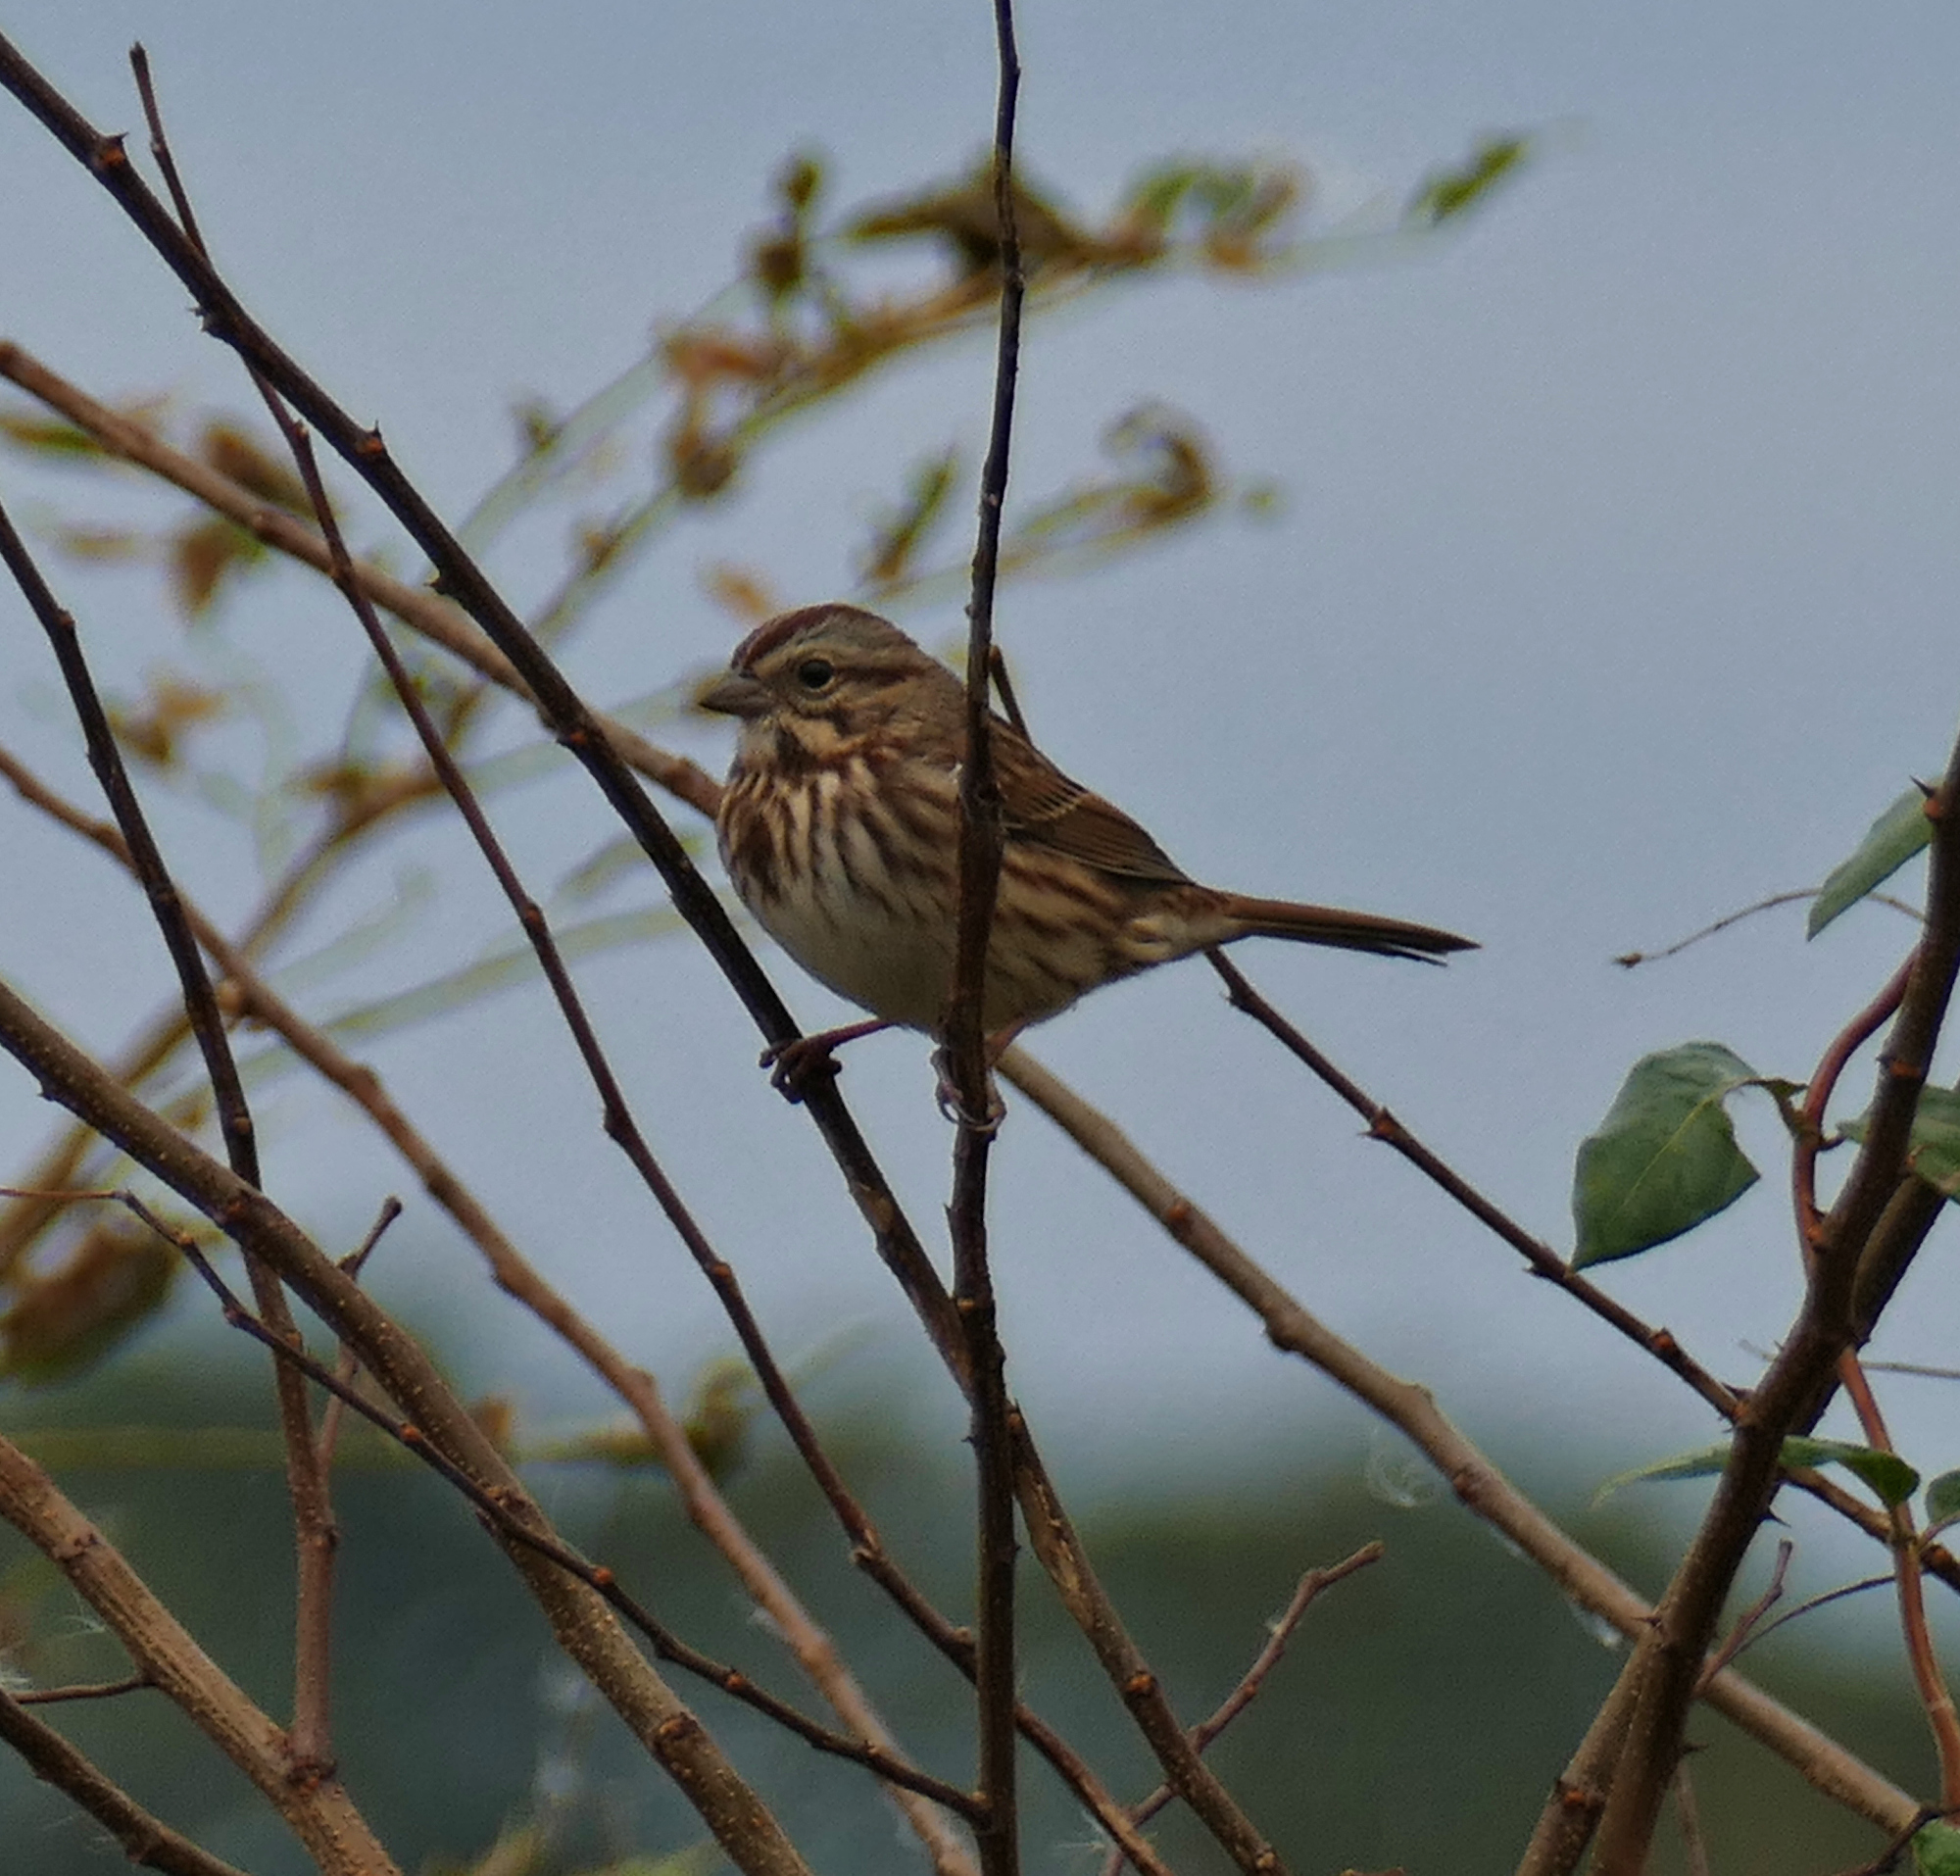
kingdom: Animalia
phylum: Chordata
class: Aves
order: Passeriformes
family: Passerellidae
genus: Melospiza
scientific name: Melospiza melodia
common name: Song sparrow
